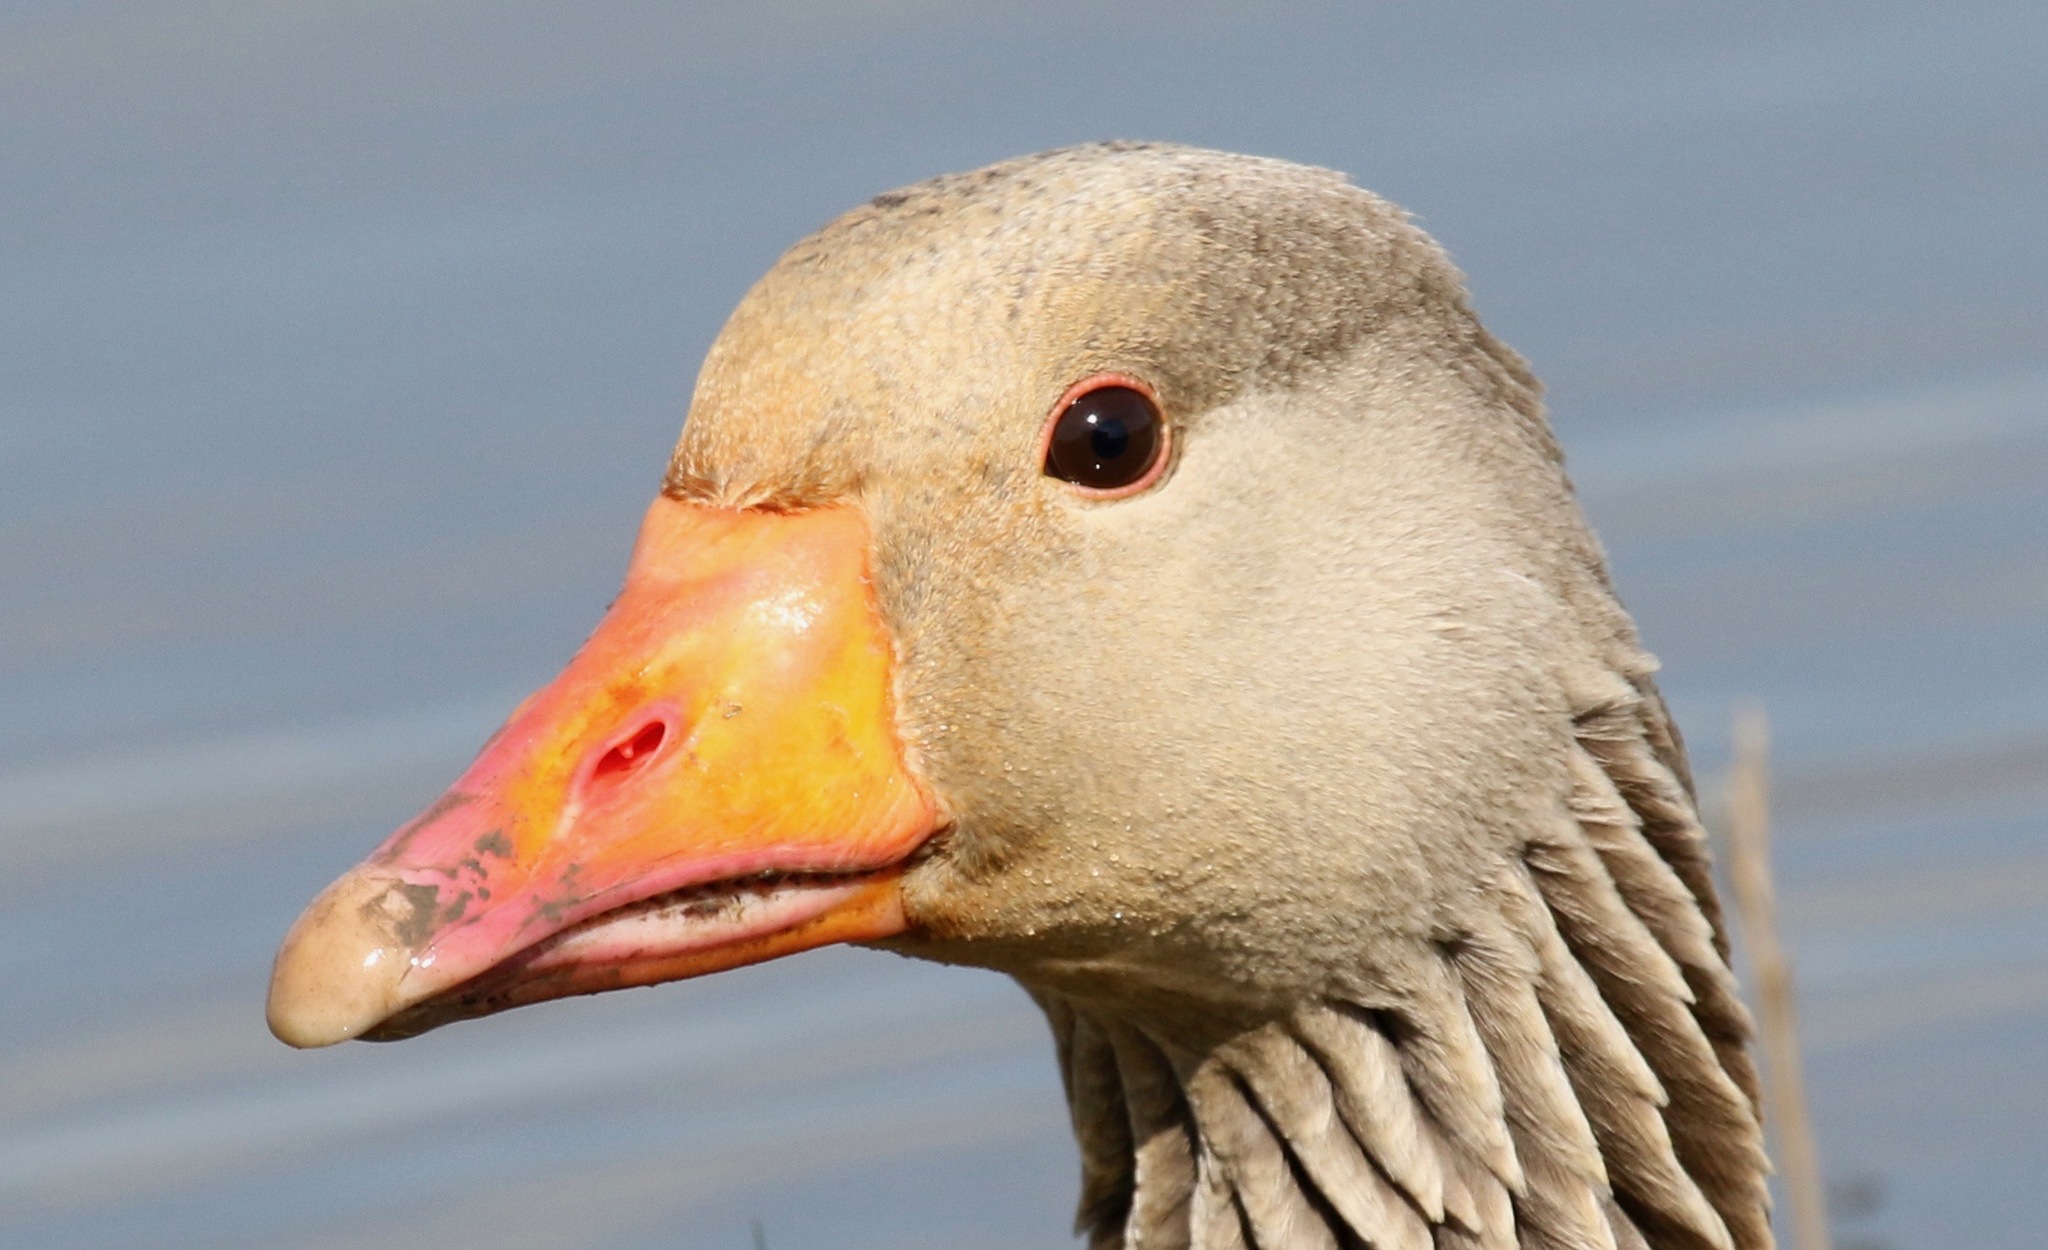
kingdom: Animalia
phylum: Chordata
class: Aves
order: Anseriformes
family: Anatidae
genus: Anser
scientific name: Anser anser
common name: Greylag goose
